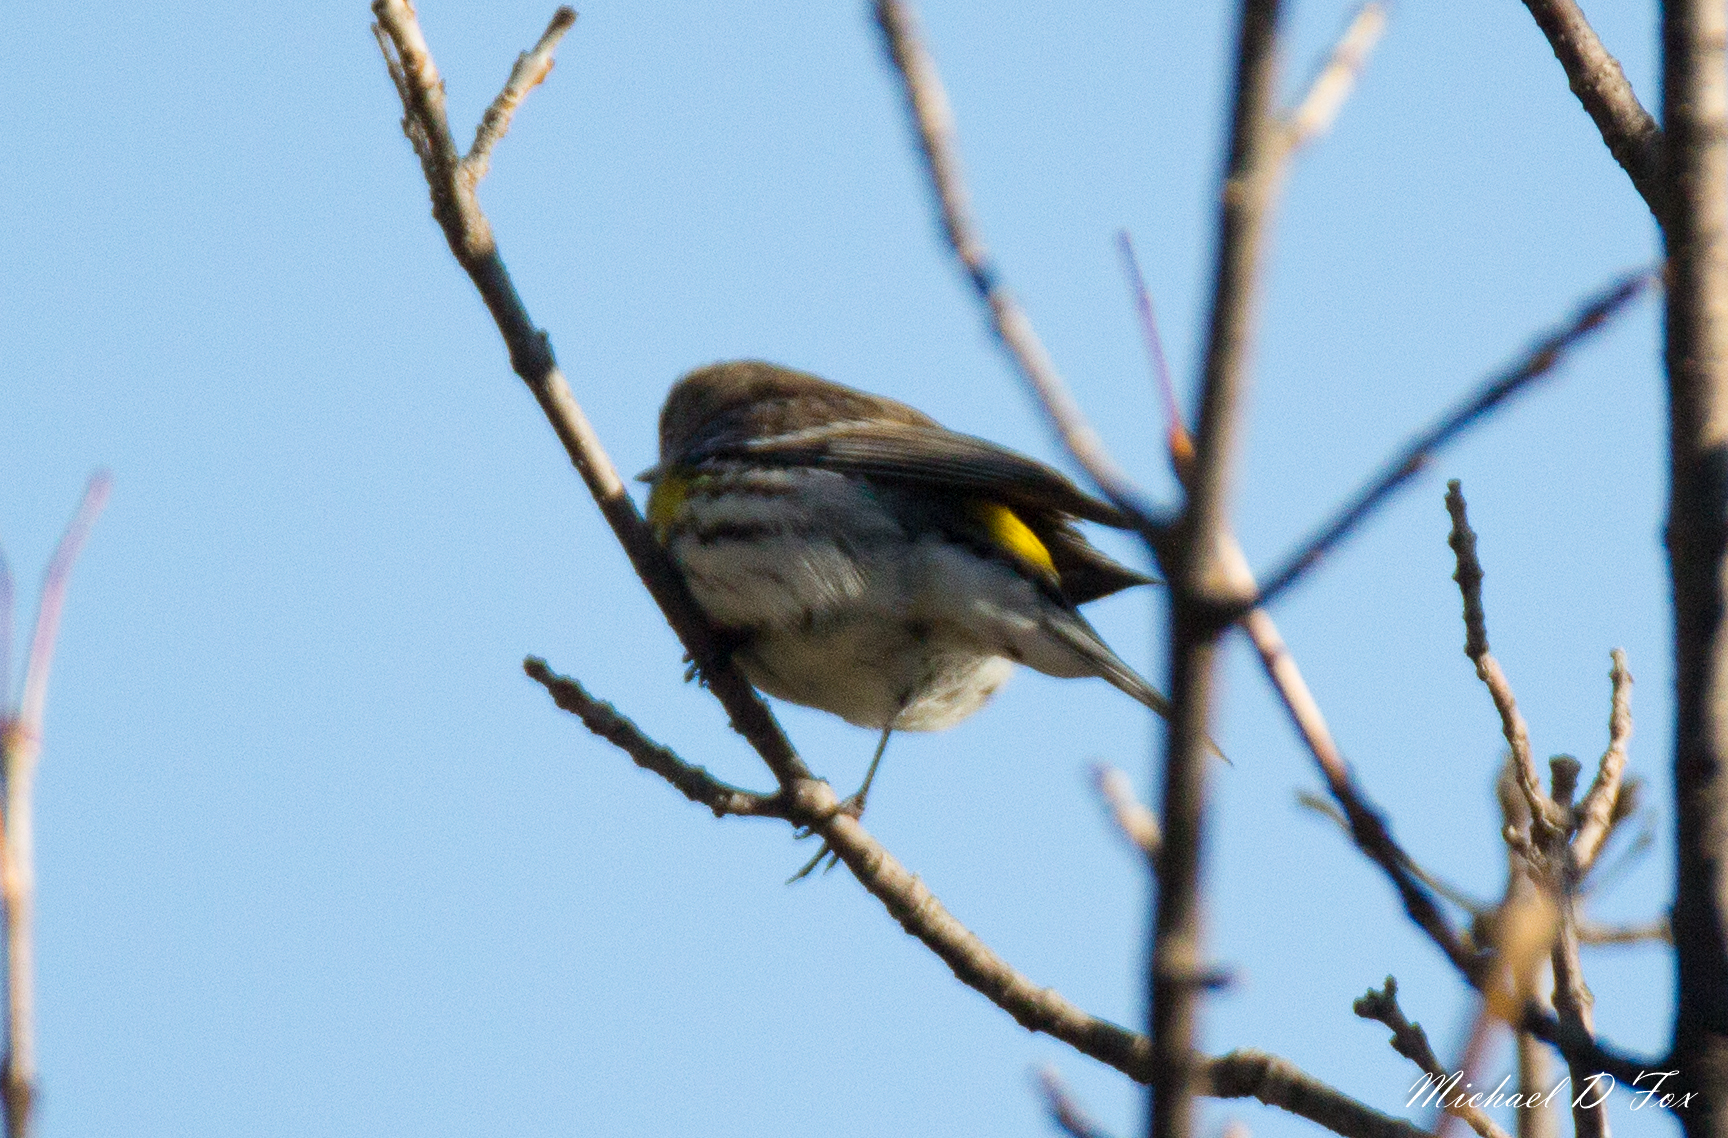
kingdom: Animalia
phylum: Chordata
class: Aves
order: Passeriformes
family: Parulidae
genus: Setophaga
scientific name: Setophaga coronata
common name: Myrtle warbler
